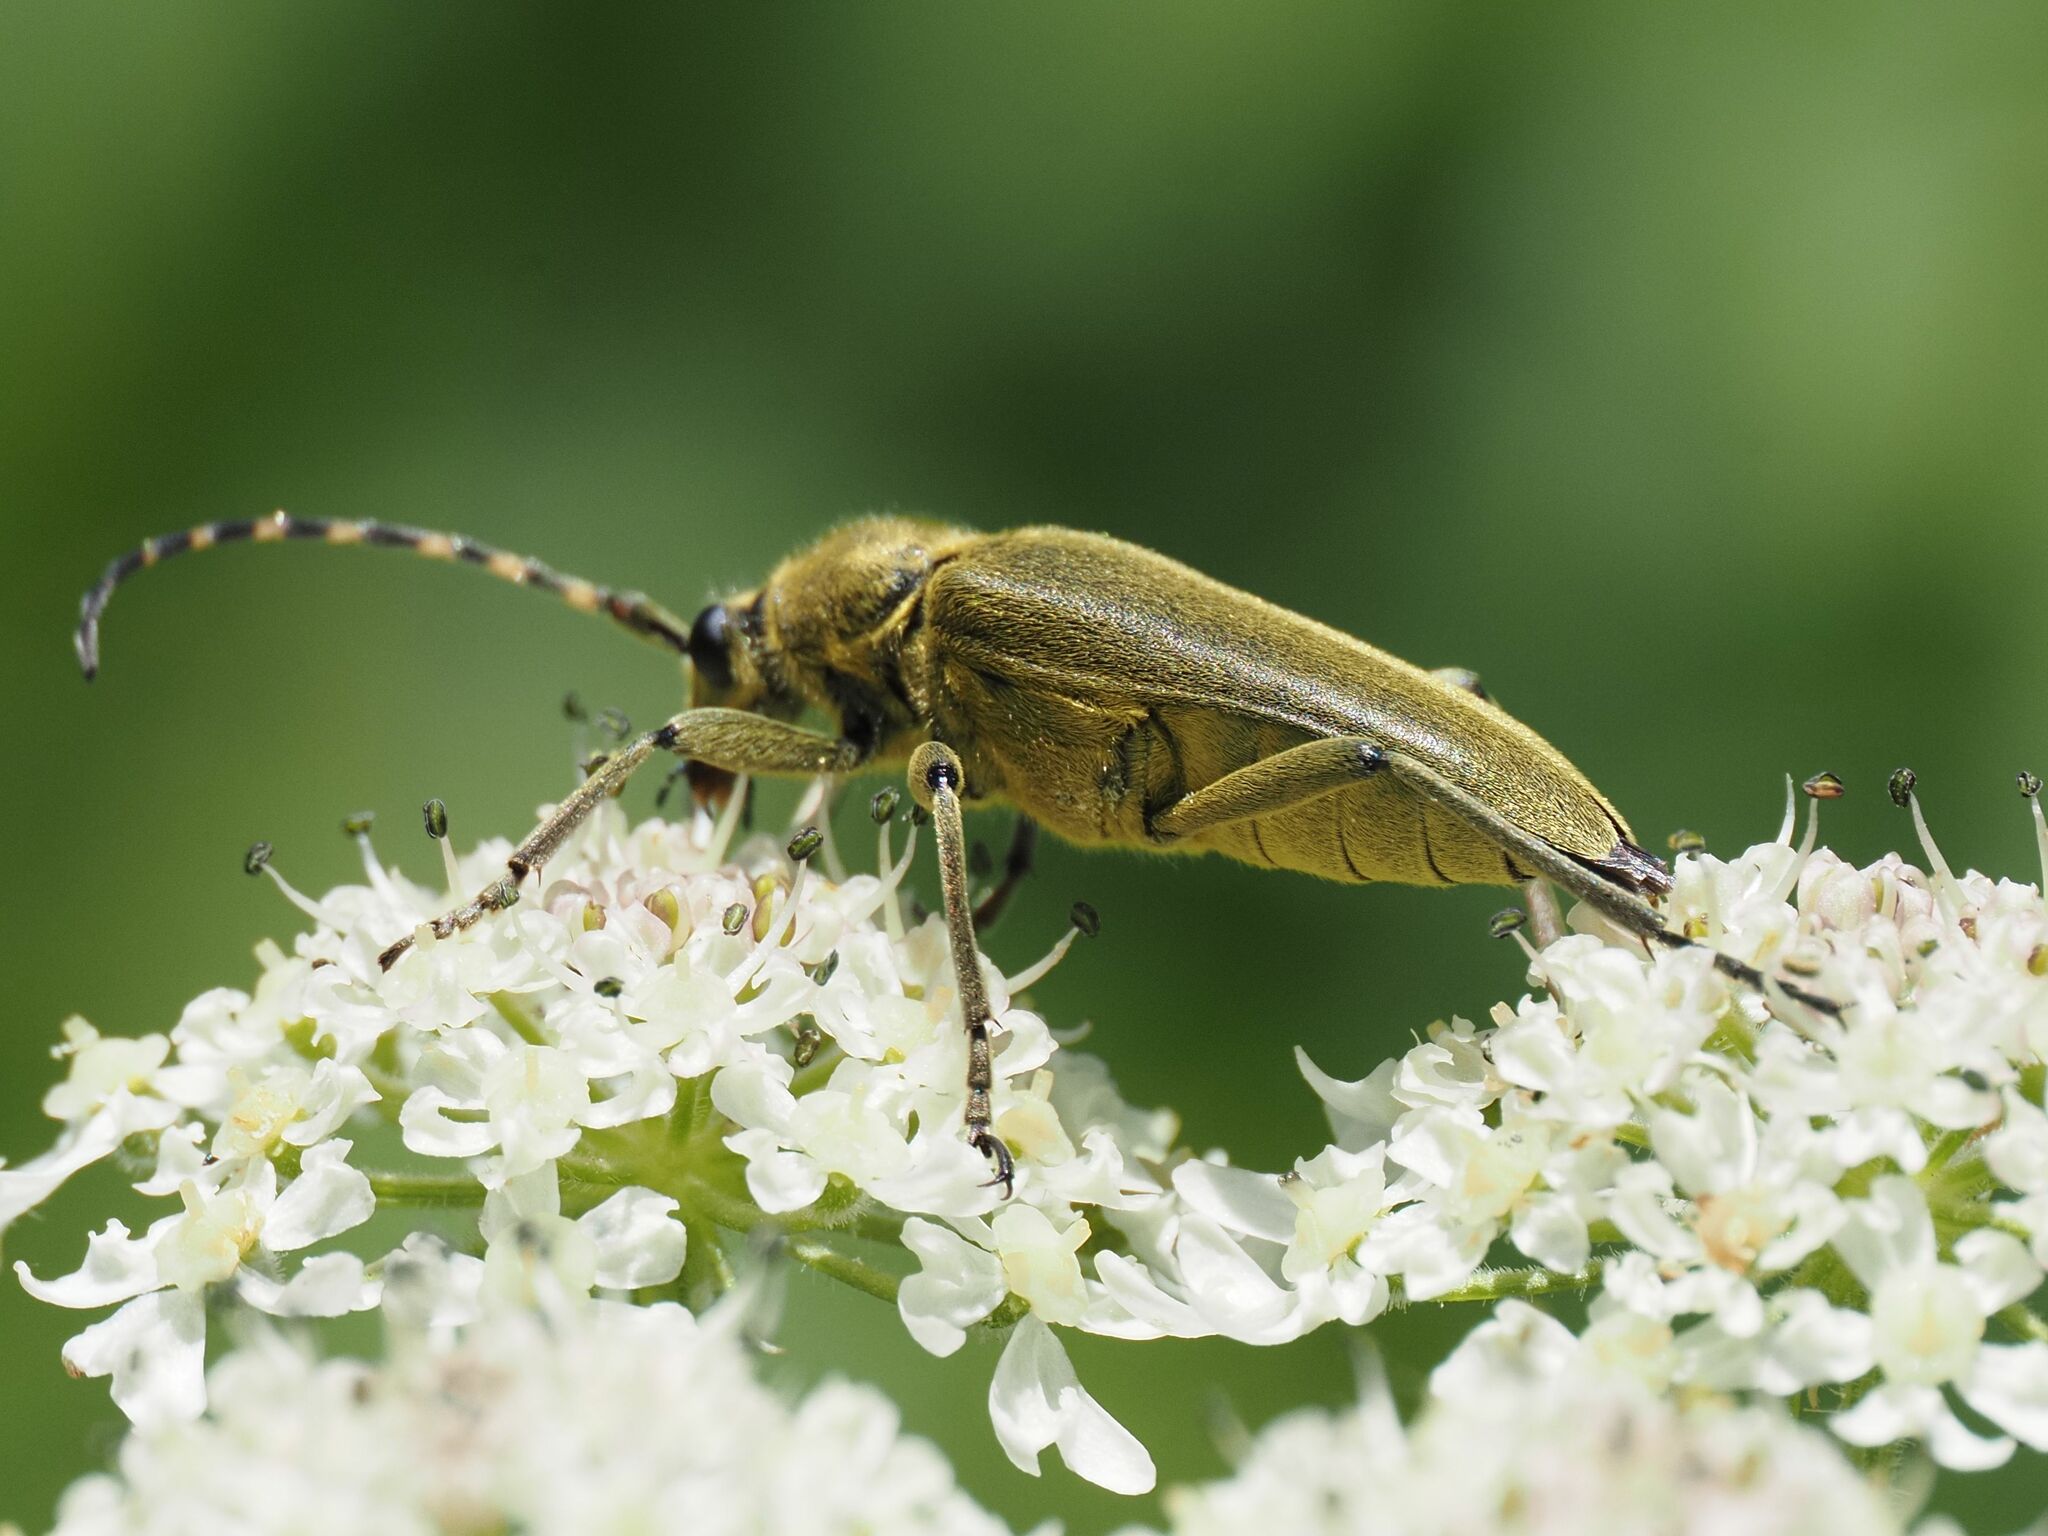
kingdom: Animalia
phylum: Arthropoda
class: Insecta
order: Coleoptera
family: Cerambycidae
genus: Lepturobosca
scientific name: Lepturobosca virens
